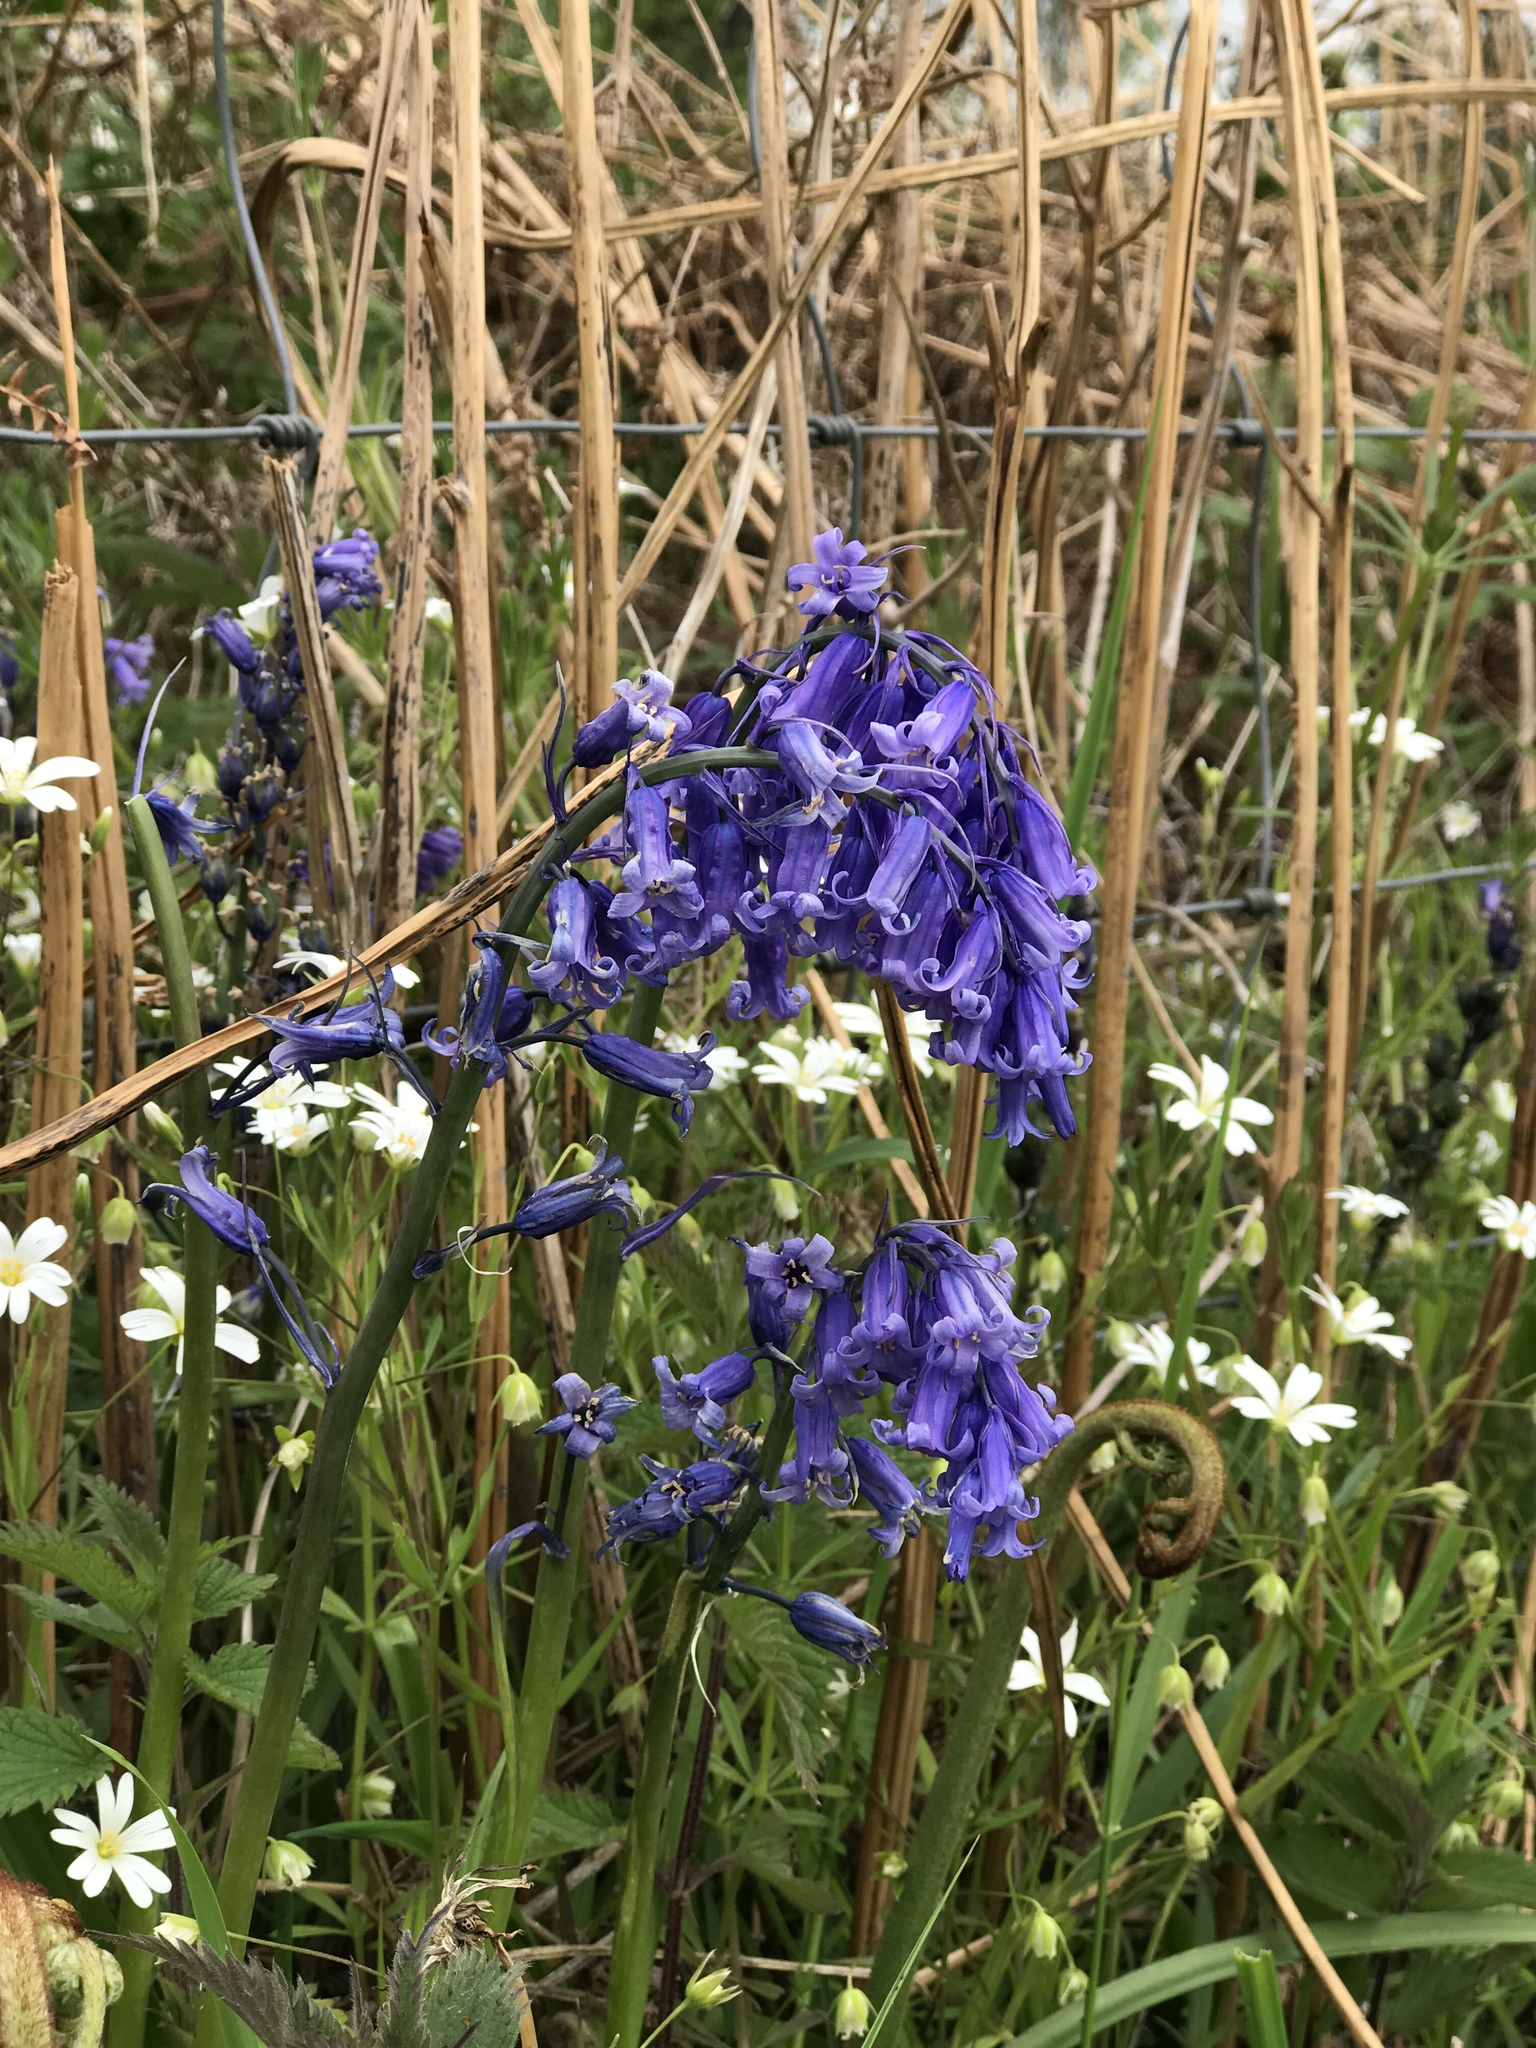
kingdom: Plantae
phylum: Tracheophyta
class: Liliopsida
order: Asparagales
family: Asparagaceae
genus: Hyacinthoides
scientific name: Hyacinthoides non-scripta
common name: Bluebell
